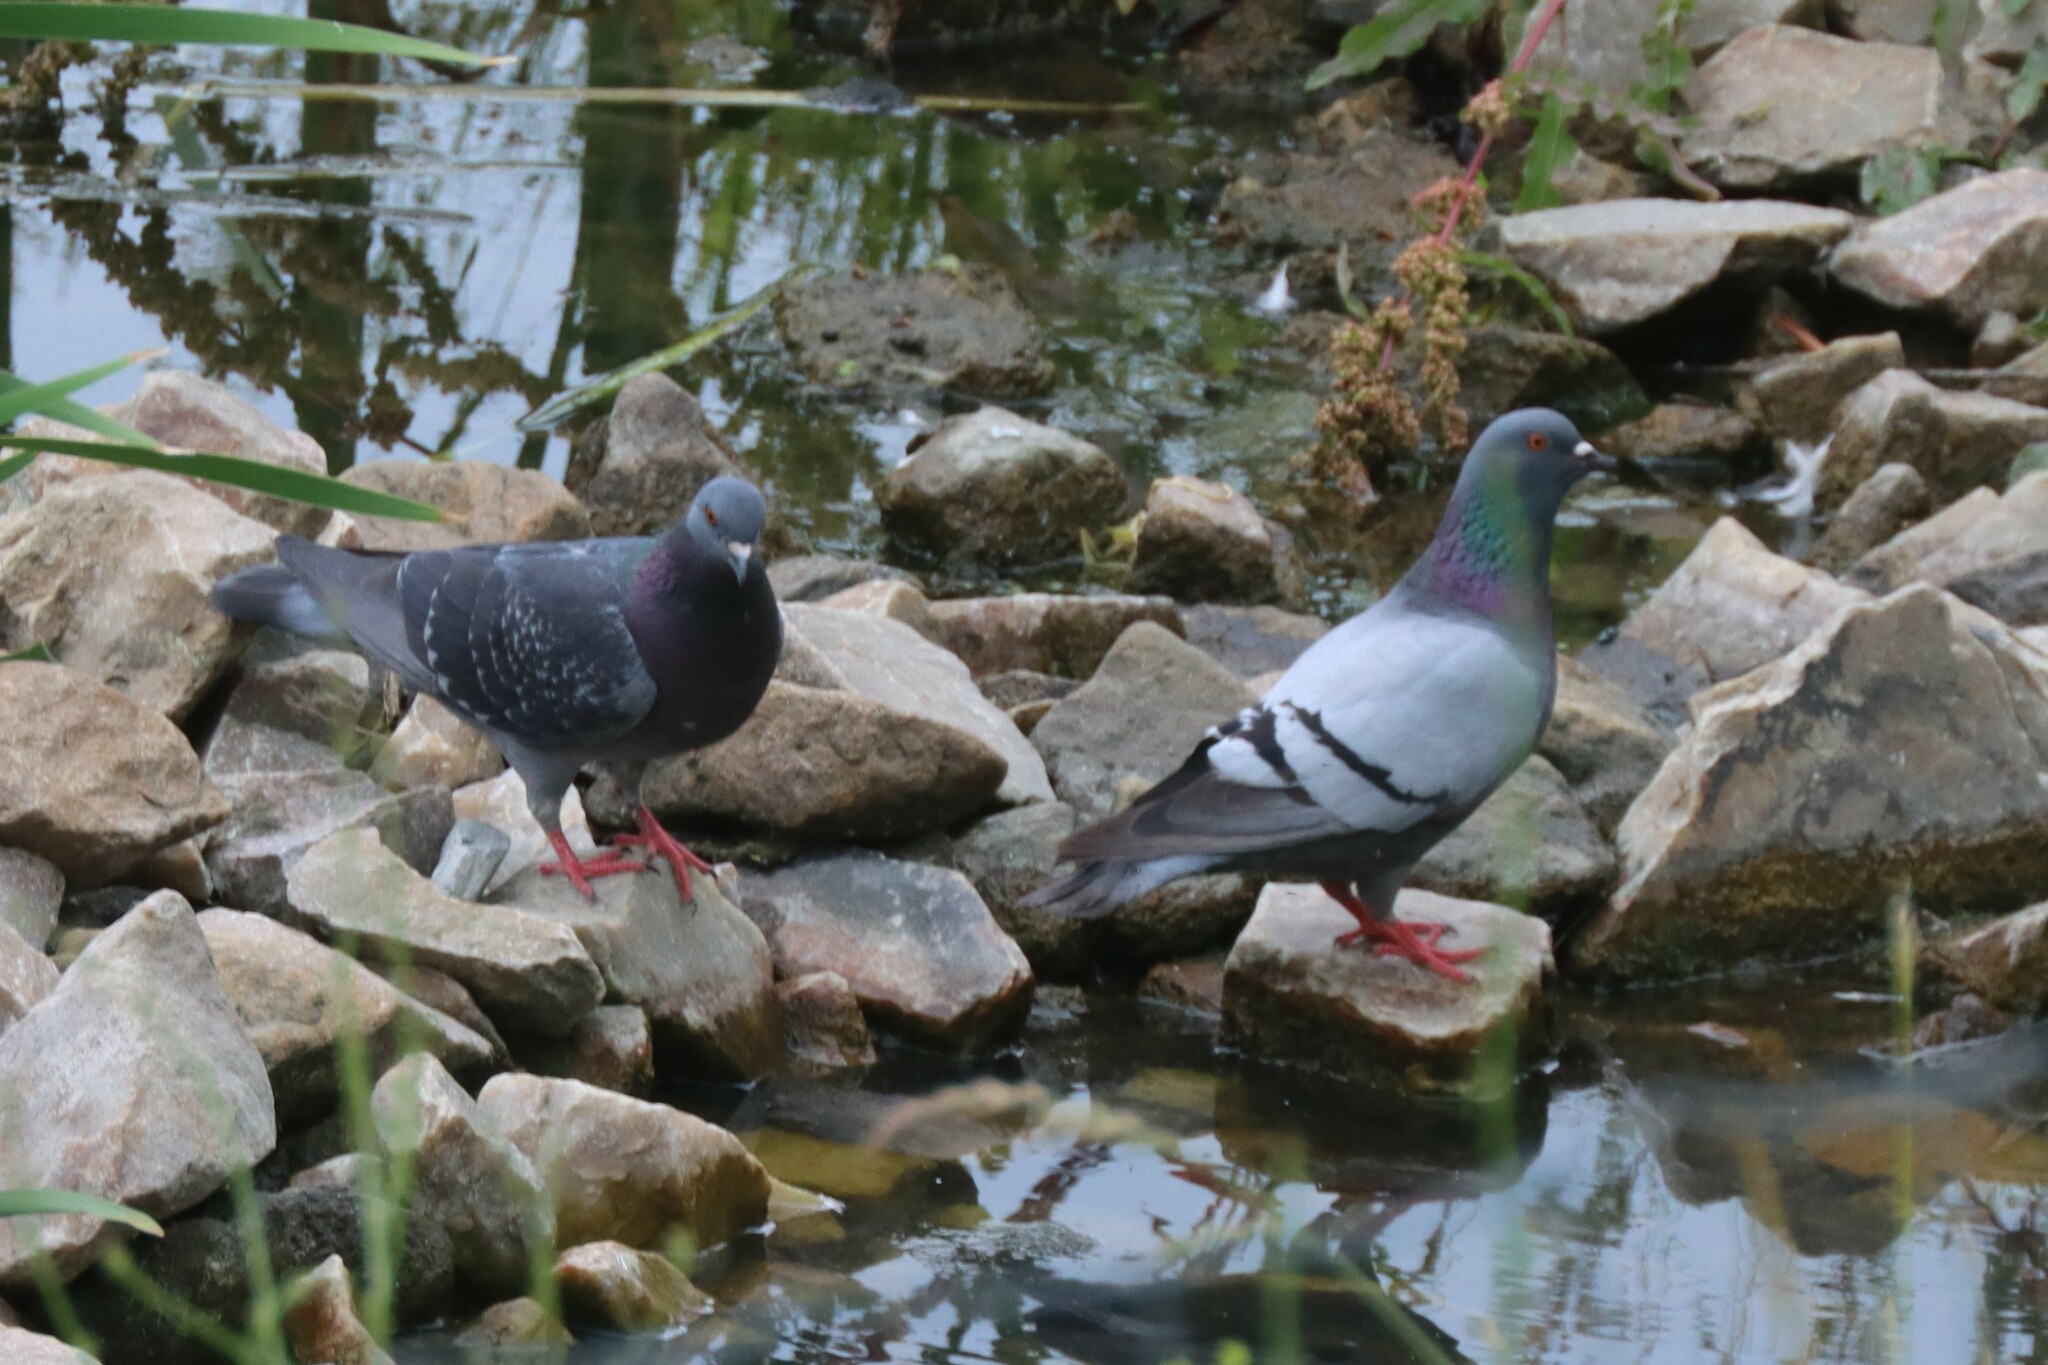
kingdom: Animalia
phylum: Chordata
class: Aves
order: Columbiformes
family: Columbidae
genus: Columba
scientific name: Columba livia
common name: Rock pigeon
